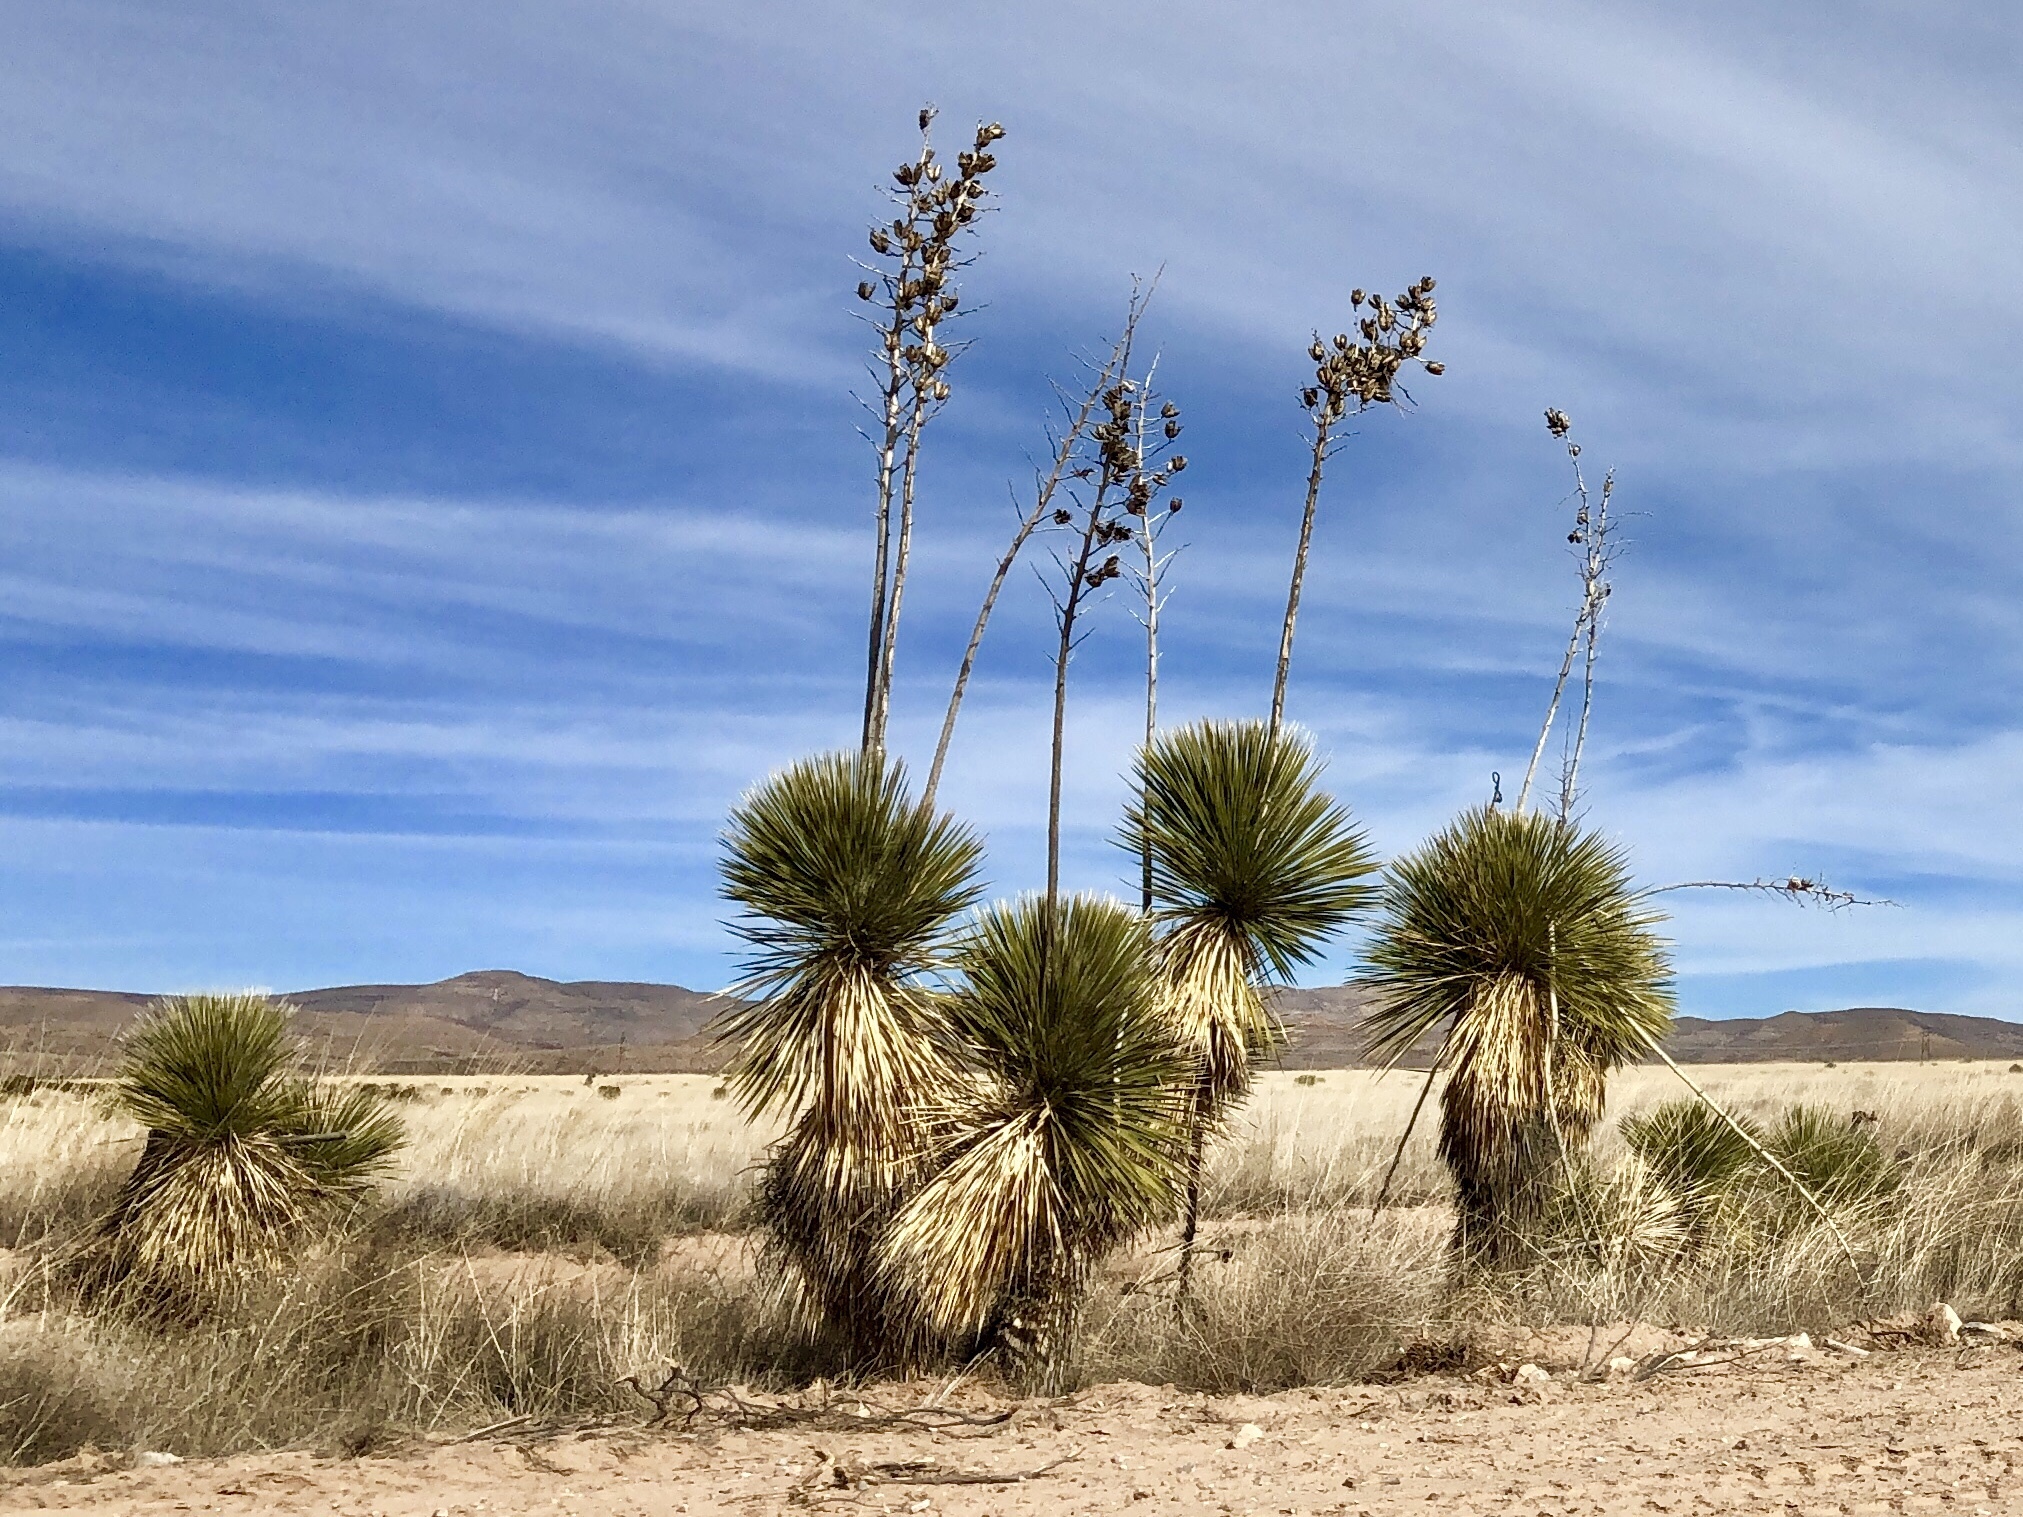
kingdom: Plantae
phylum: Tracheophyta
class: Liliopsida
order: Asparagales
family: Asparagaceae
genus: Yucca
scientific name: Yucca elata
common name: Palmella
